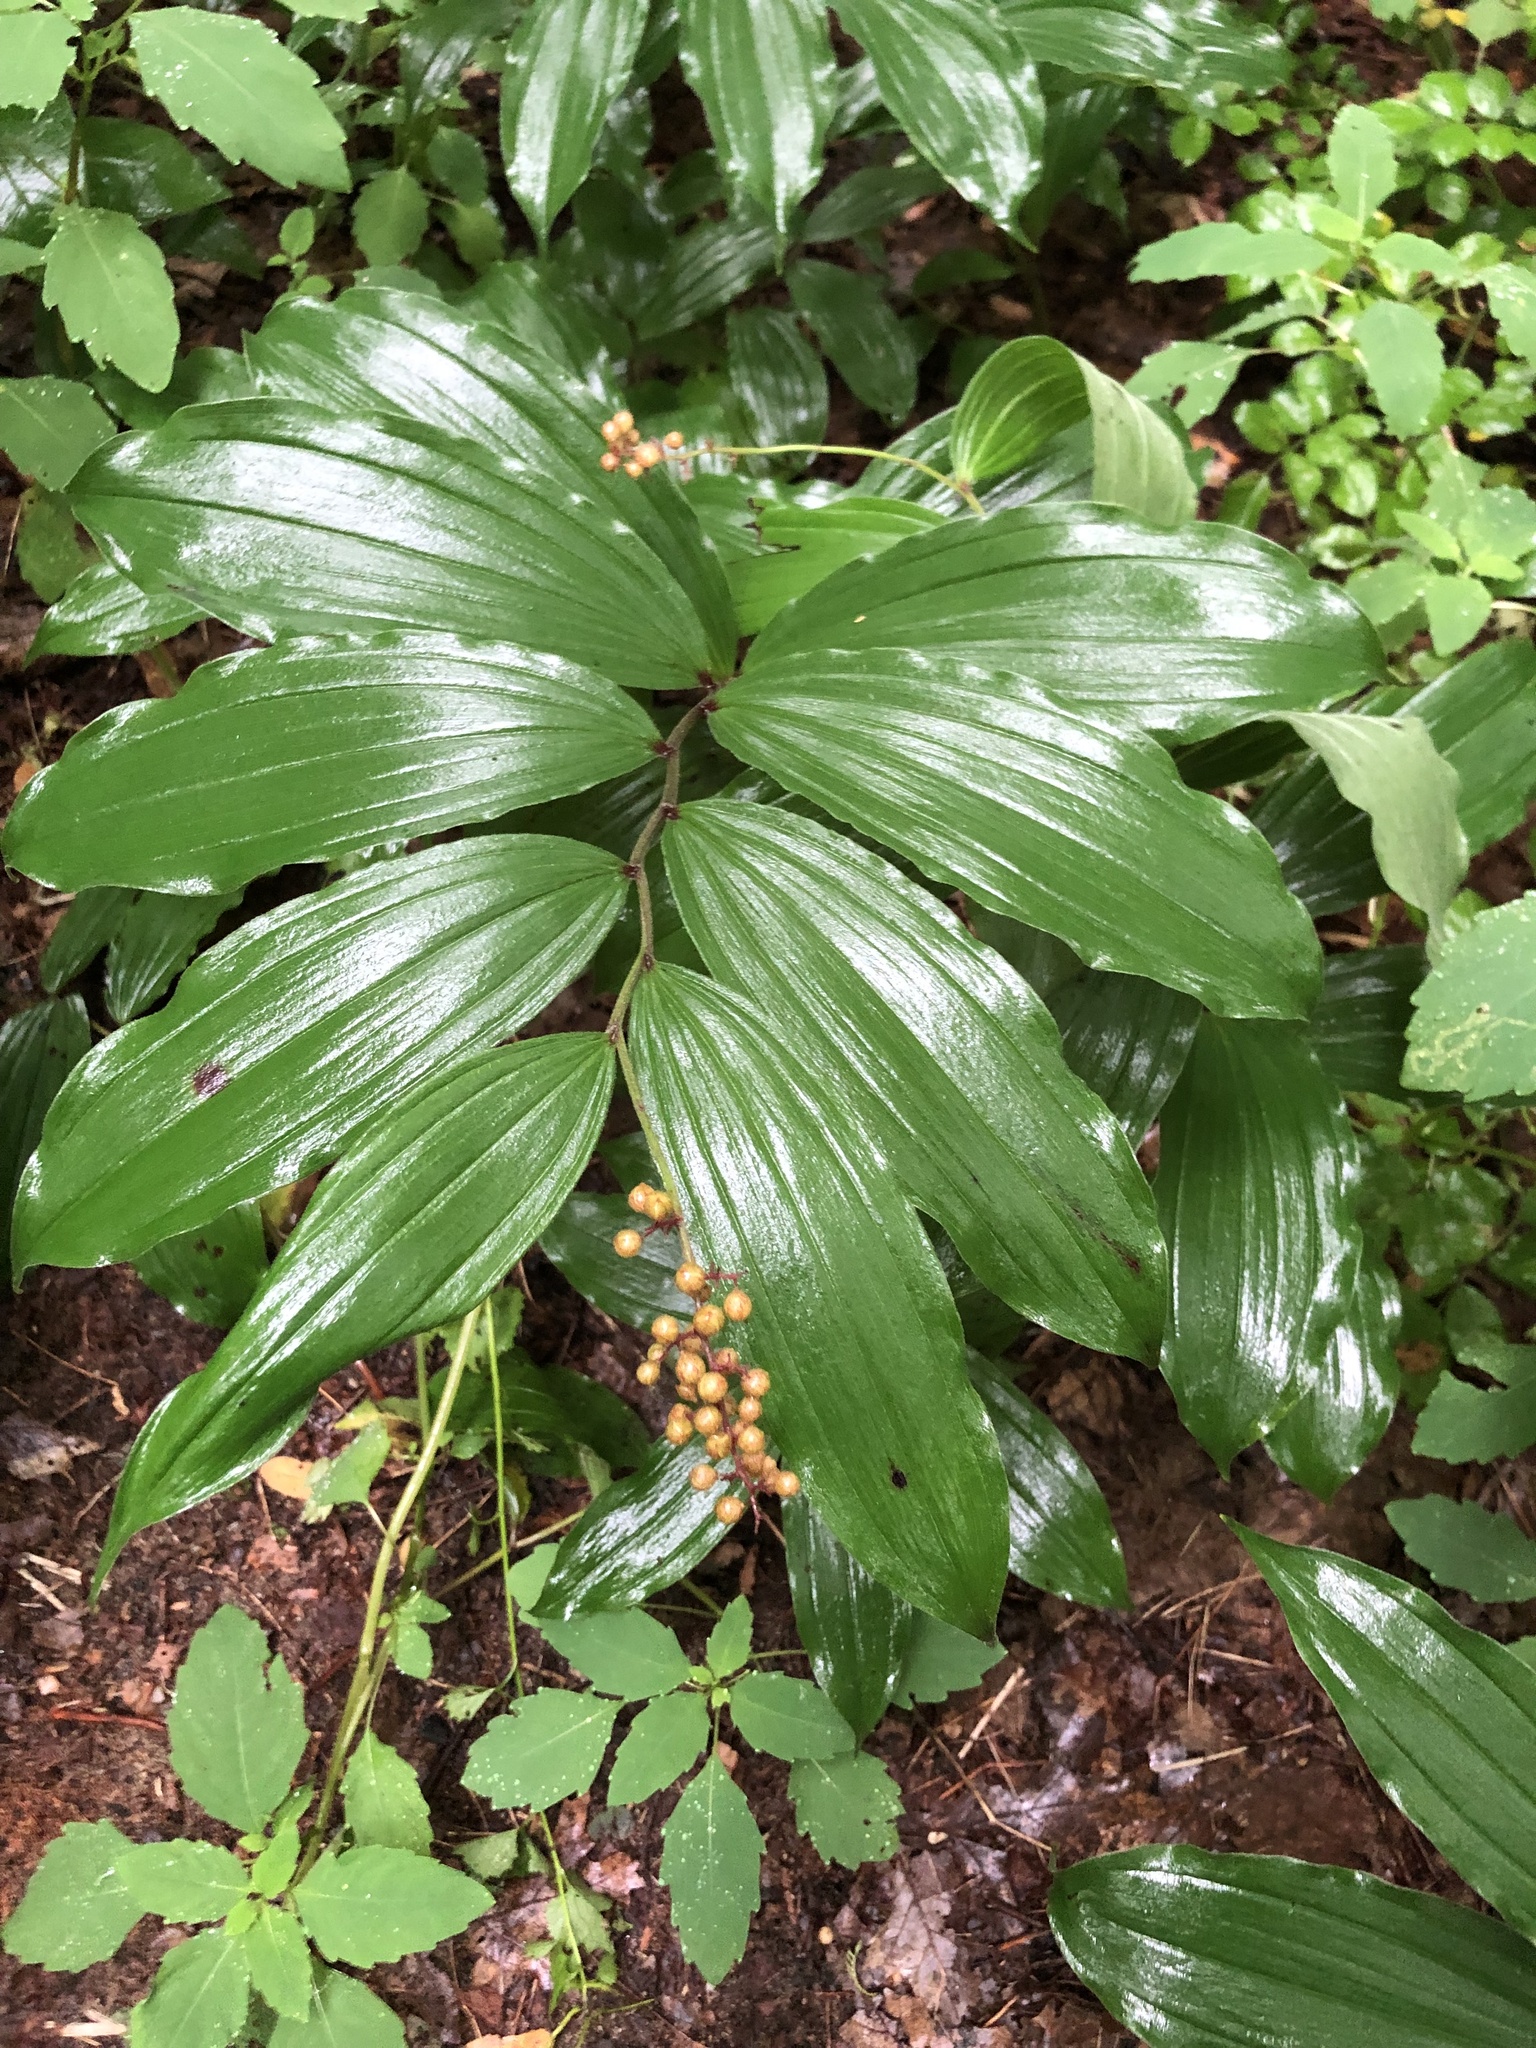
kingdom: Plantae
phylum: Tracheophyta
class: Liliopsida
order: Asparagales
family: Asparagaceae
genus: Maianthemum
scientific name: Maianthemum racemosum
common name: False spikenard
